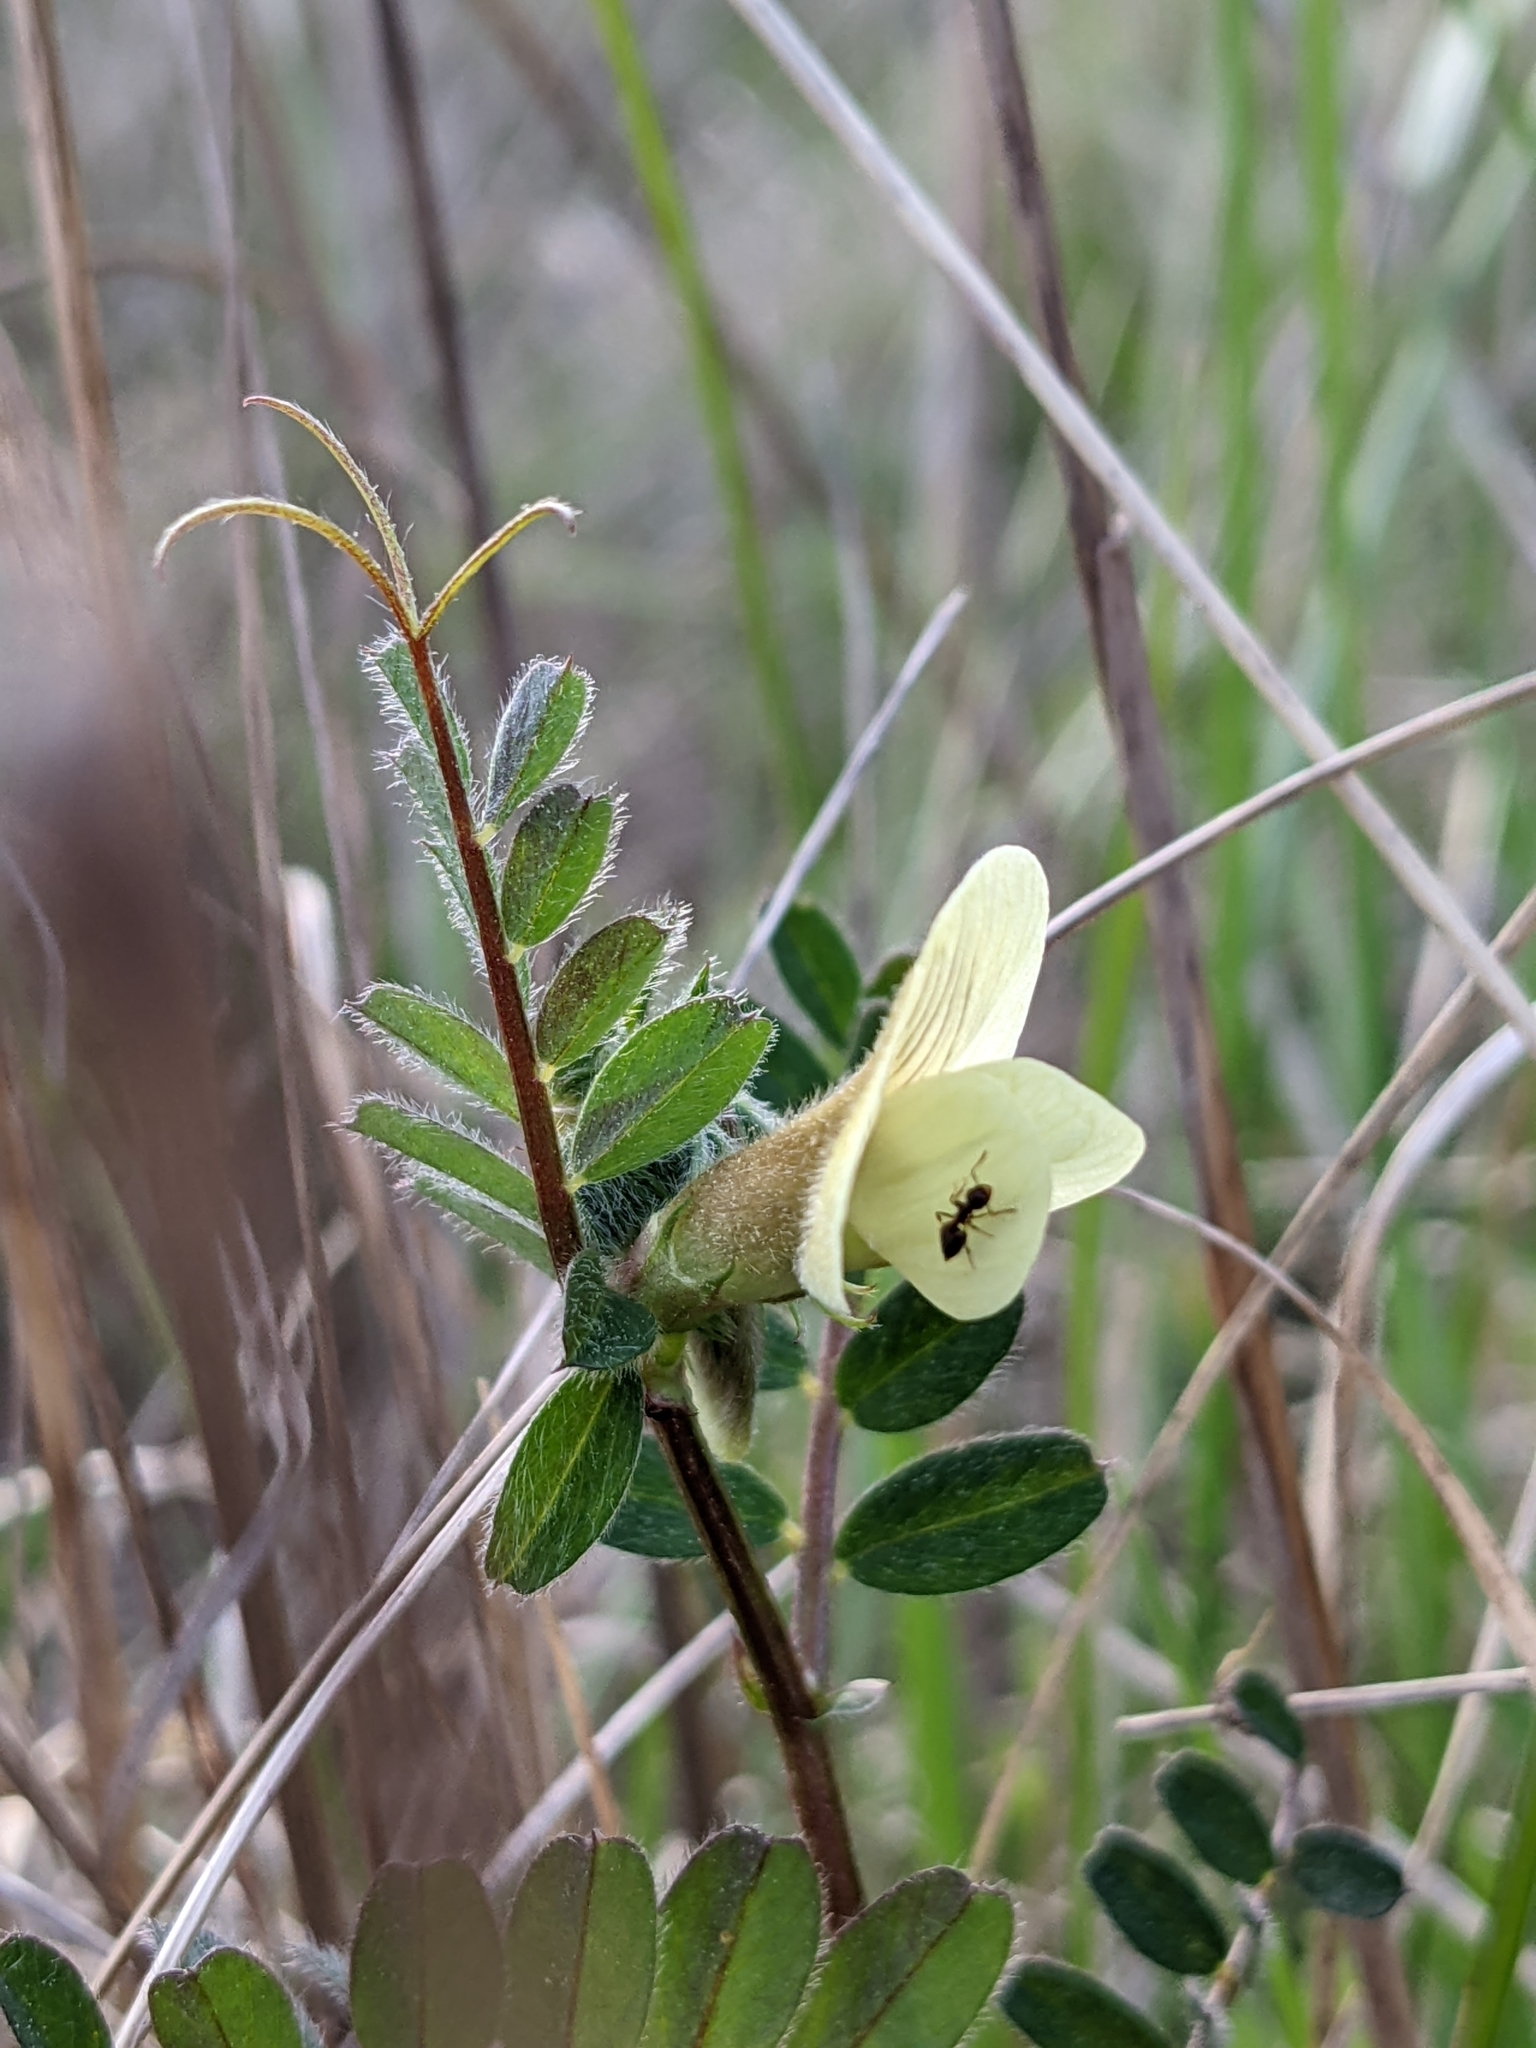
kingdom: Plantae
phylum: Tracheophyta
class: Magnoliopsida
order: Fabales
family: Fabaceae
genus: Vicia
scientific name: Vicia hybrida
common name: Hairy yellow vetch
